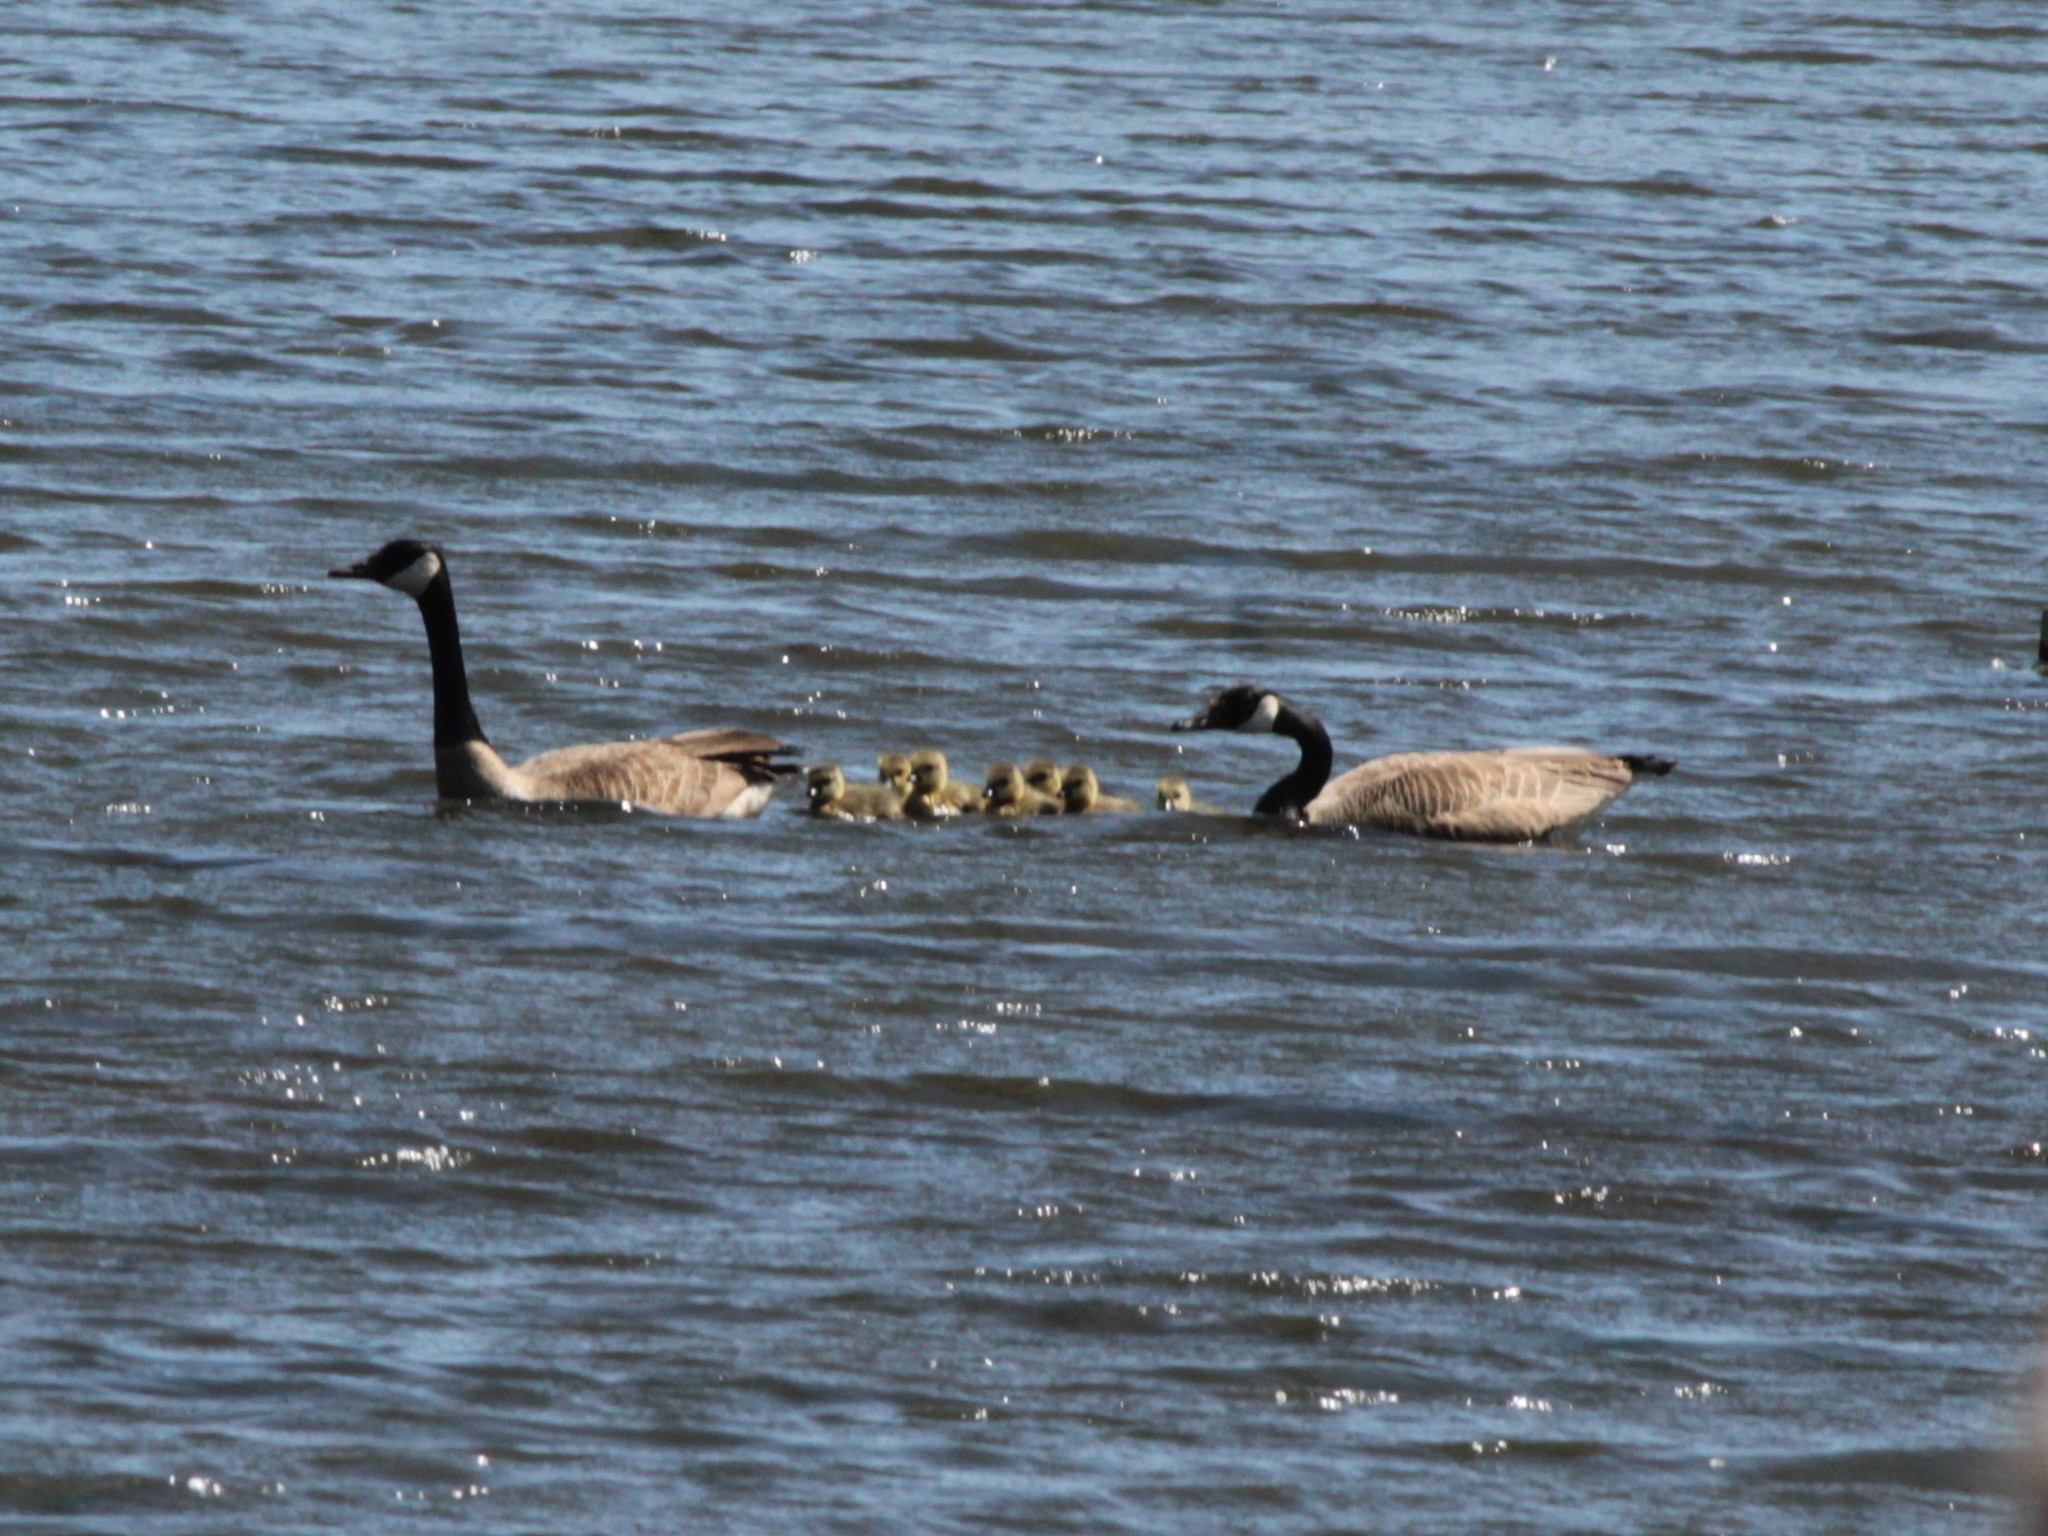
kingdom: Animalia
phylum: Chordata
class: Aves
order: Anseriformes
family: Anatidae
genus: Branta
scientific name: Branta canadensis
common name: Canada goose
